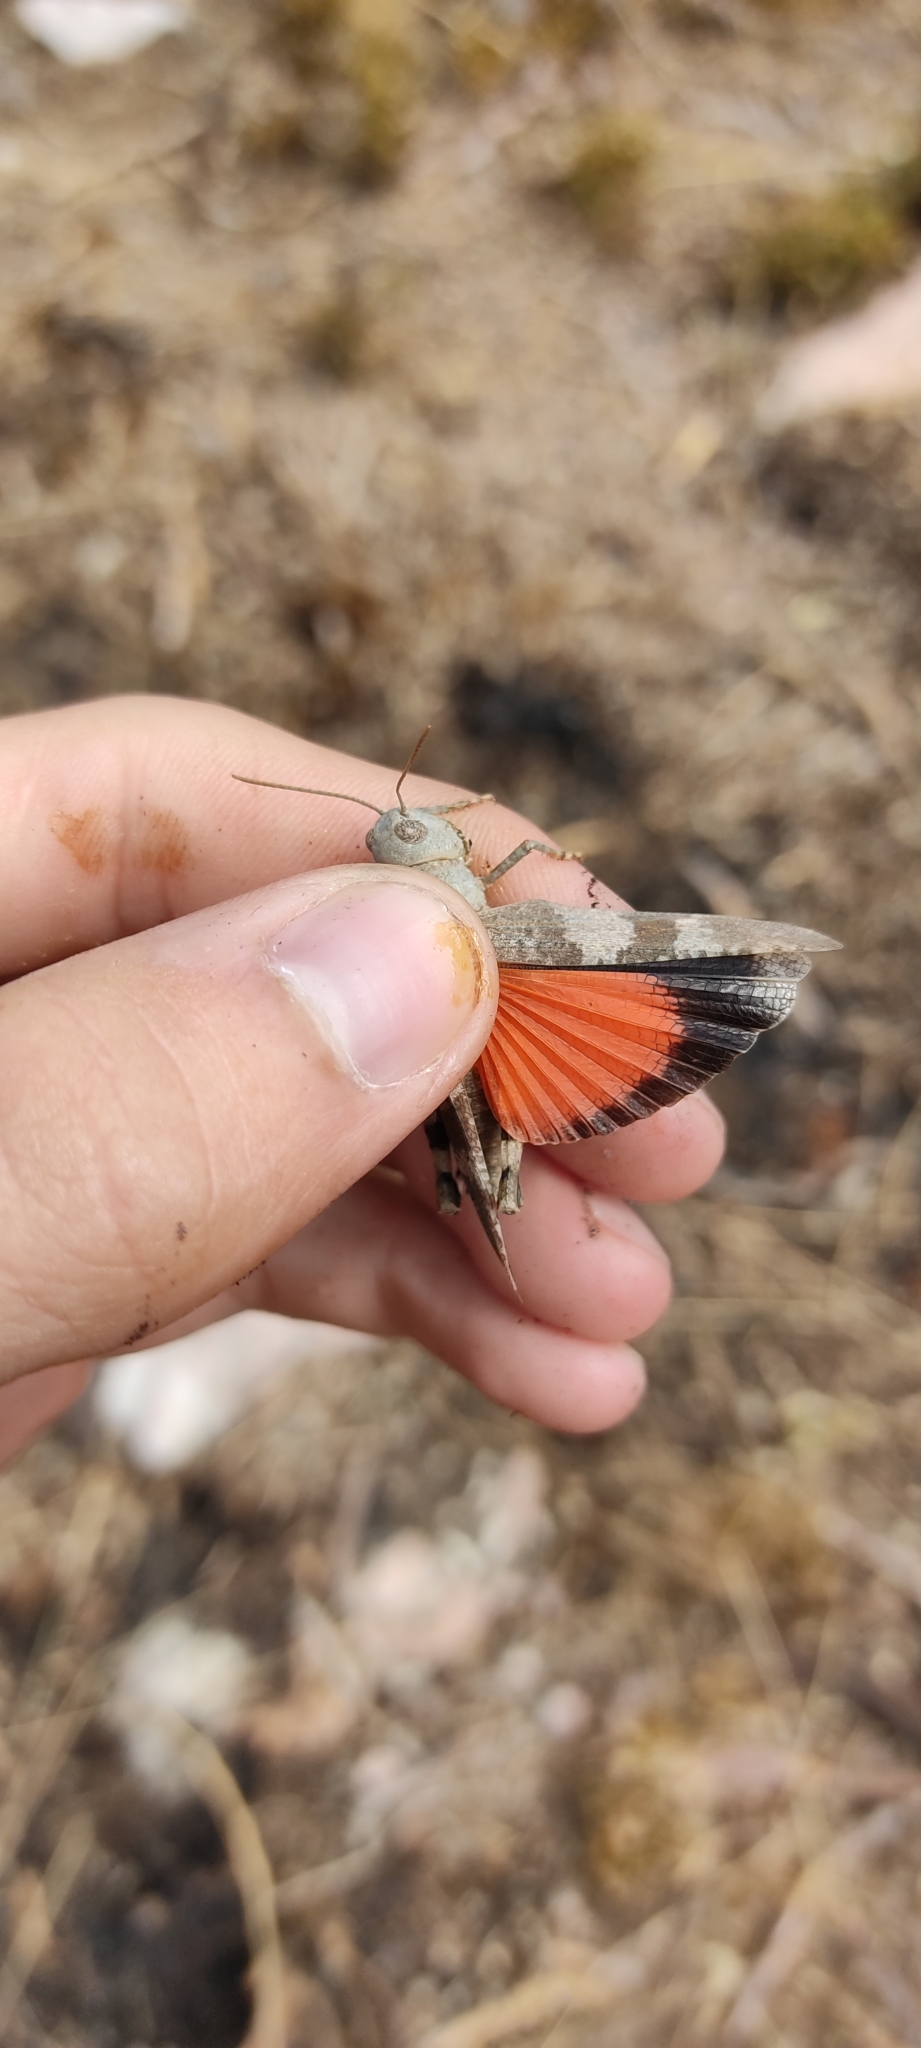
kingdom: Animalia
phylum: Arthropoda
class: Insecta
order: Orthoptera
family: Acrididae
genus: Oedipoda
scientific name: Oedipoda germanica
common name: Red band-winged grasshopper
